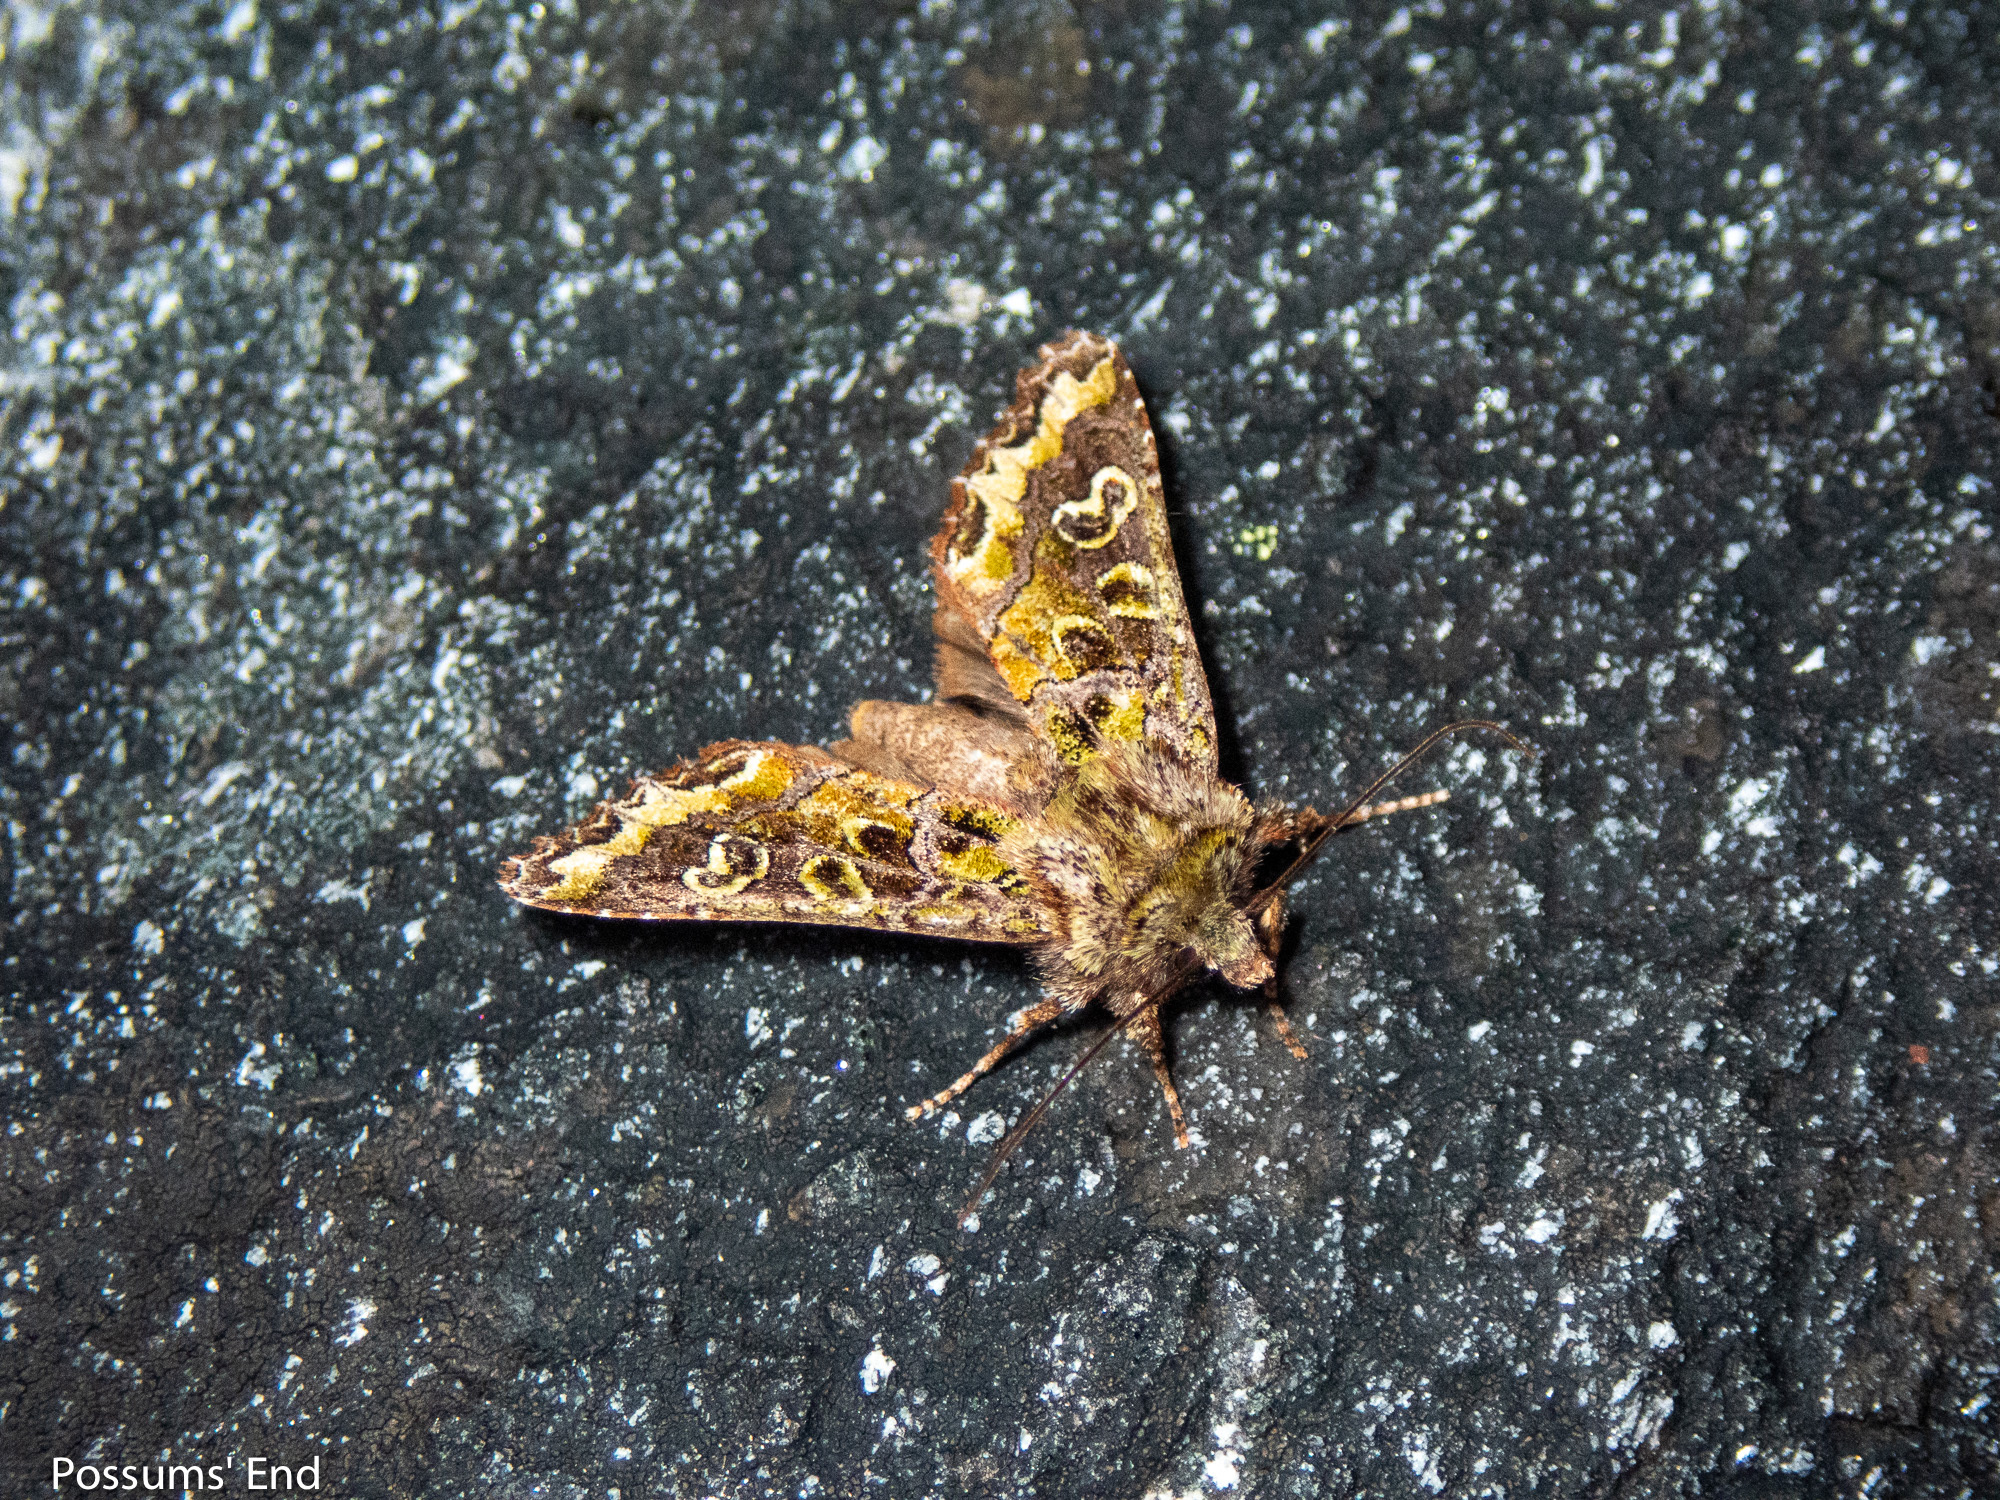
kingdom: Animalia
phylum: Arthropoda
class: Insecta
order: Lepidoptera
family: Noctuidae
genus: Ichneutica
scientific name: Ichneutica chlorodonta
